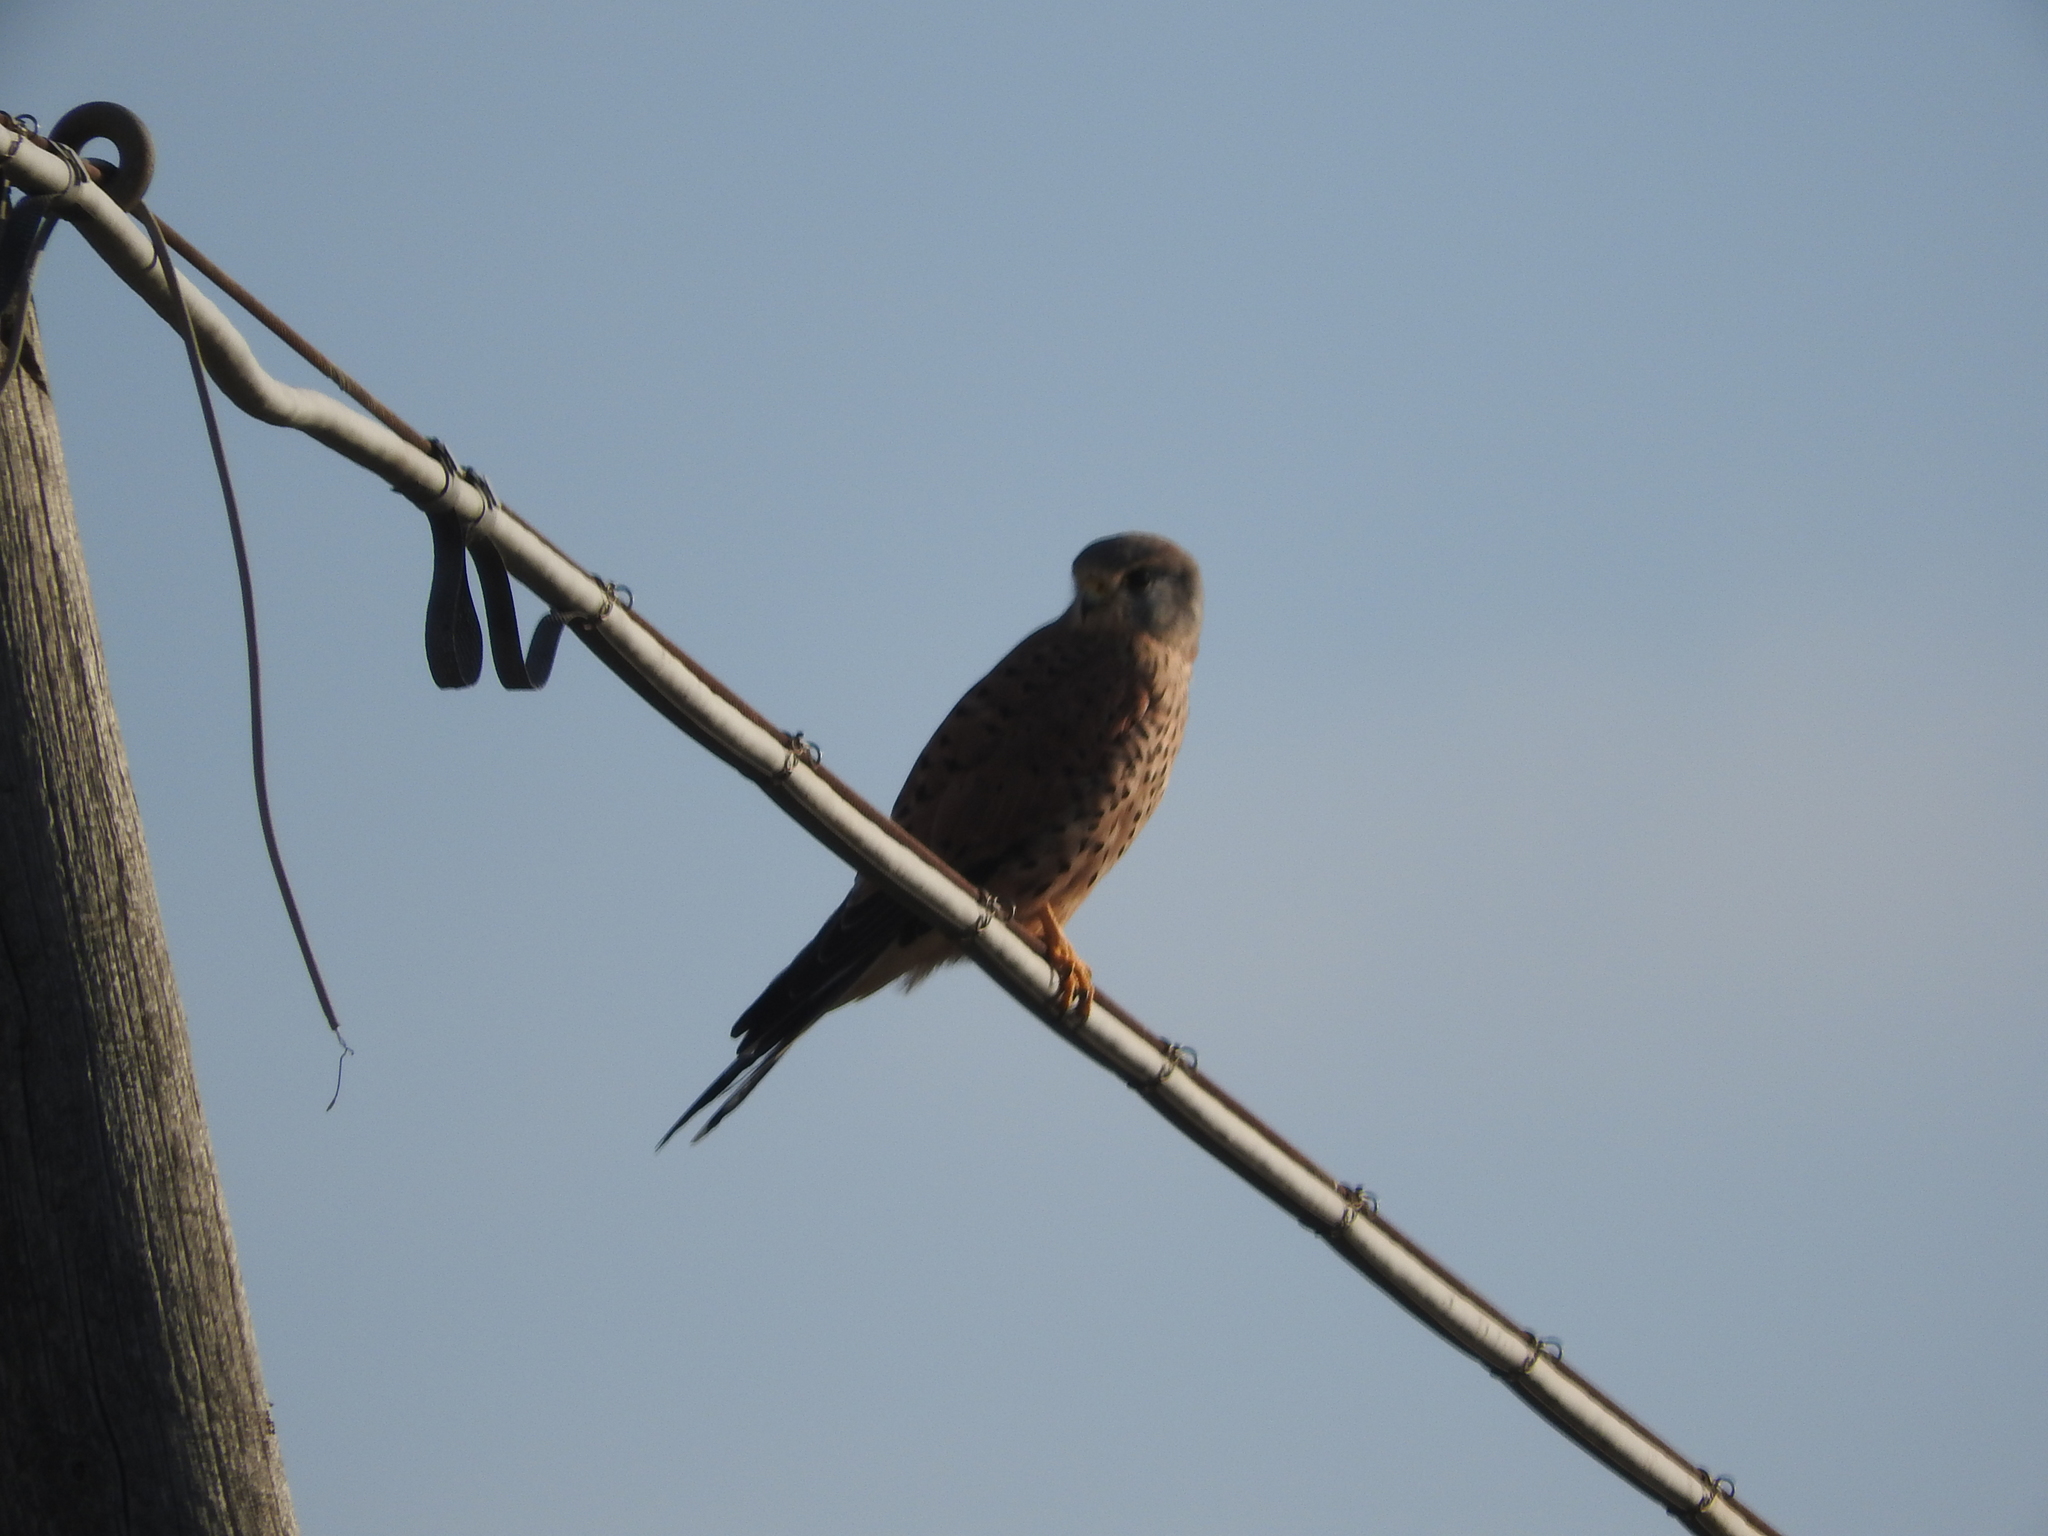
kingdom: Animalia
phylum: Chordata
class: Aves
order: Falconiformes
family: Falconidae
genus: Falco
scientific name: Falco tinnunculus
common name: Common kestrel
